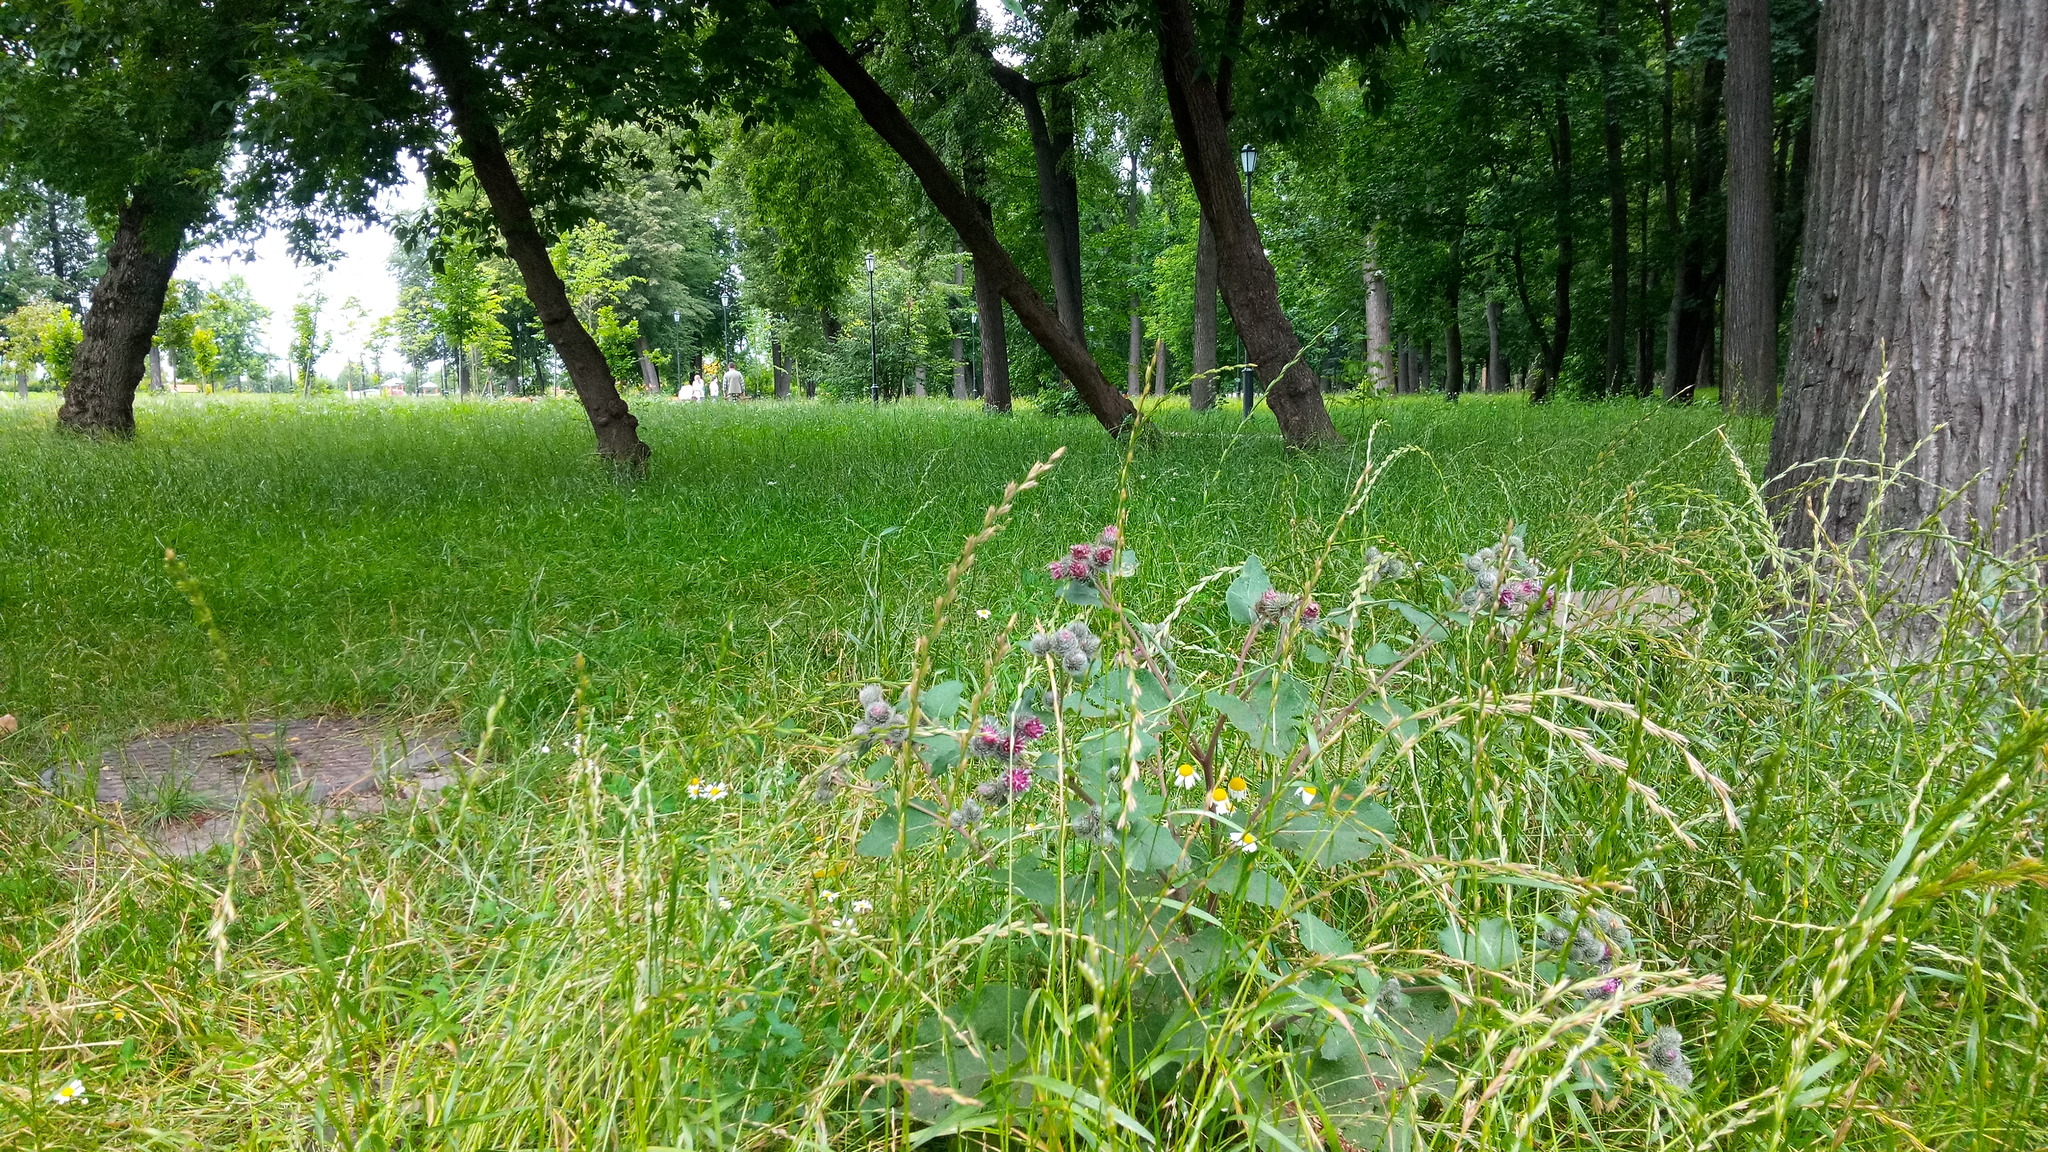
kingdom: Plantae
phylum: Tracheophyta
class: Magnoliopsida
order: Asterales
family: Asteraceae
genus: Arctium
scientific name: Arctium tomentosum
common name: Woolly burdock
